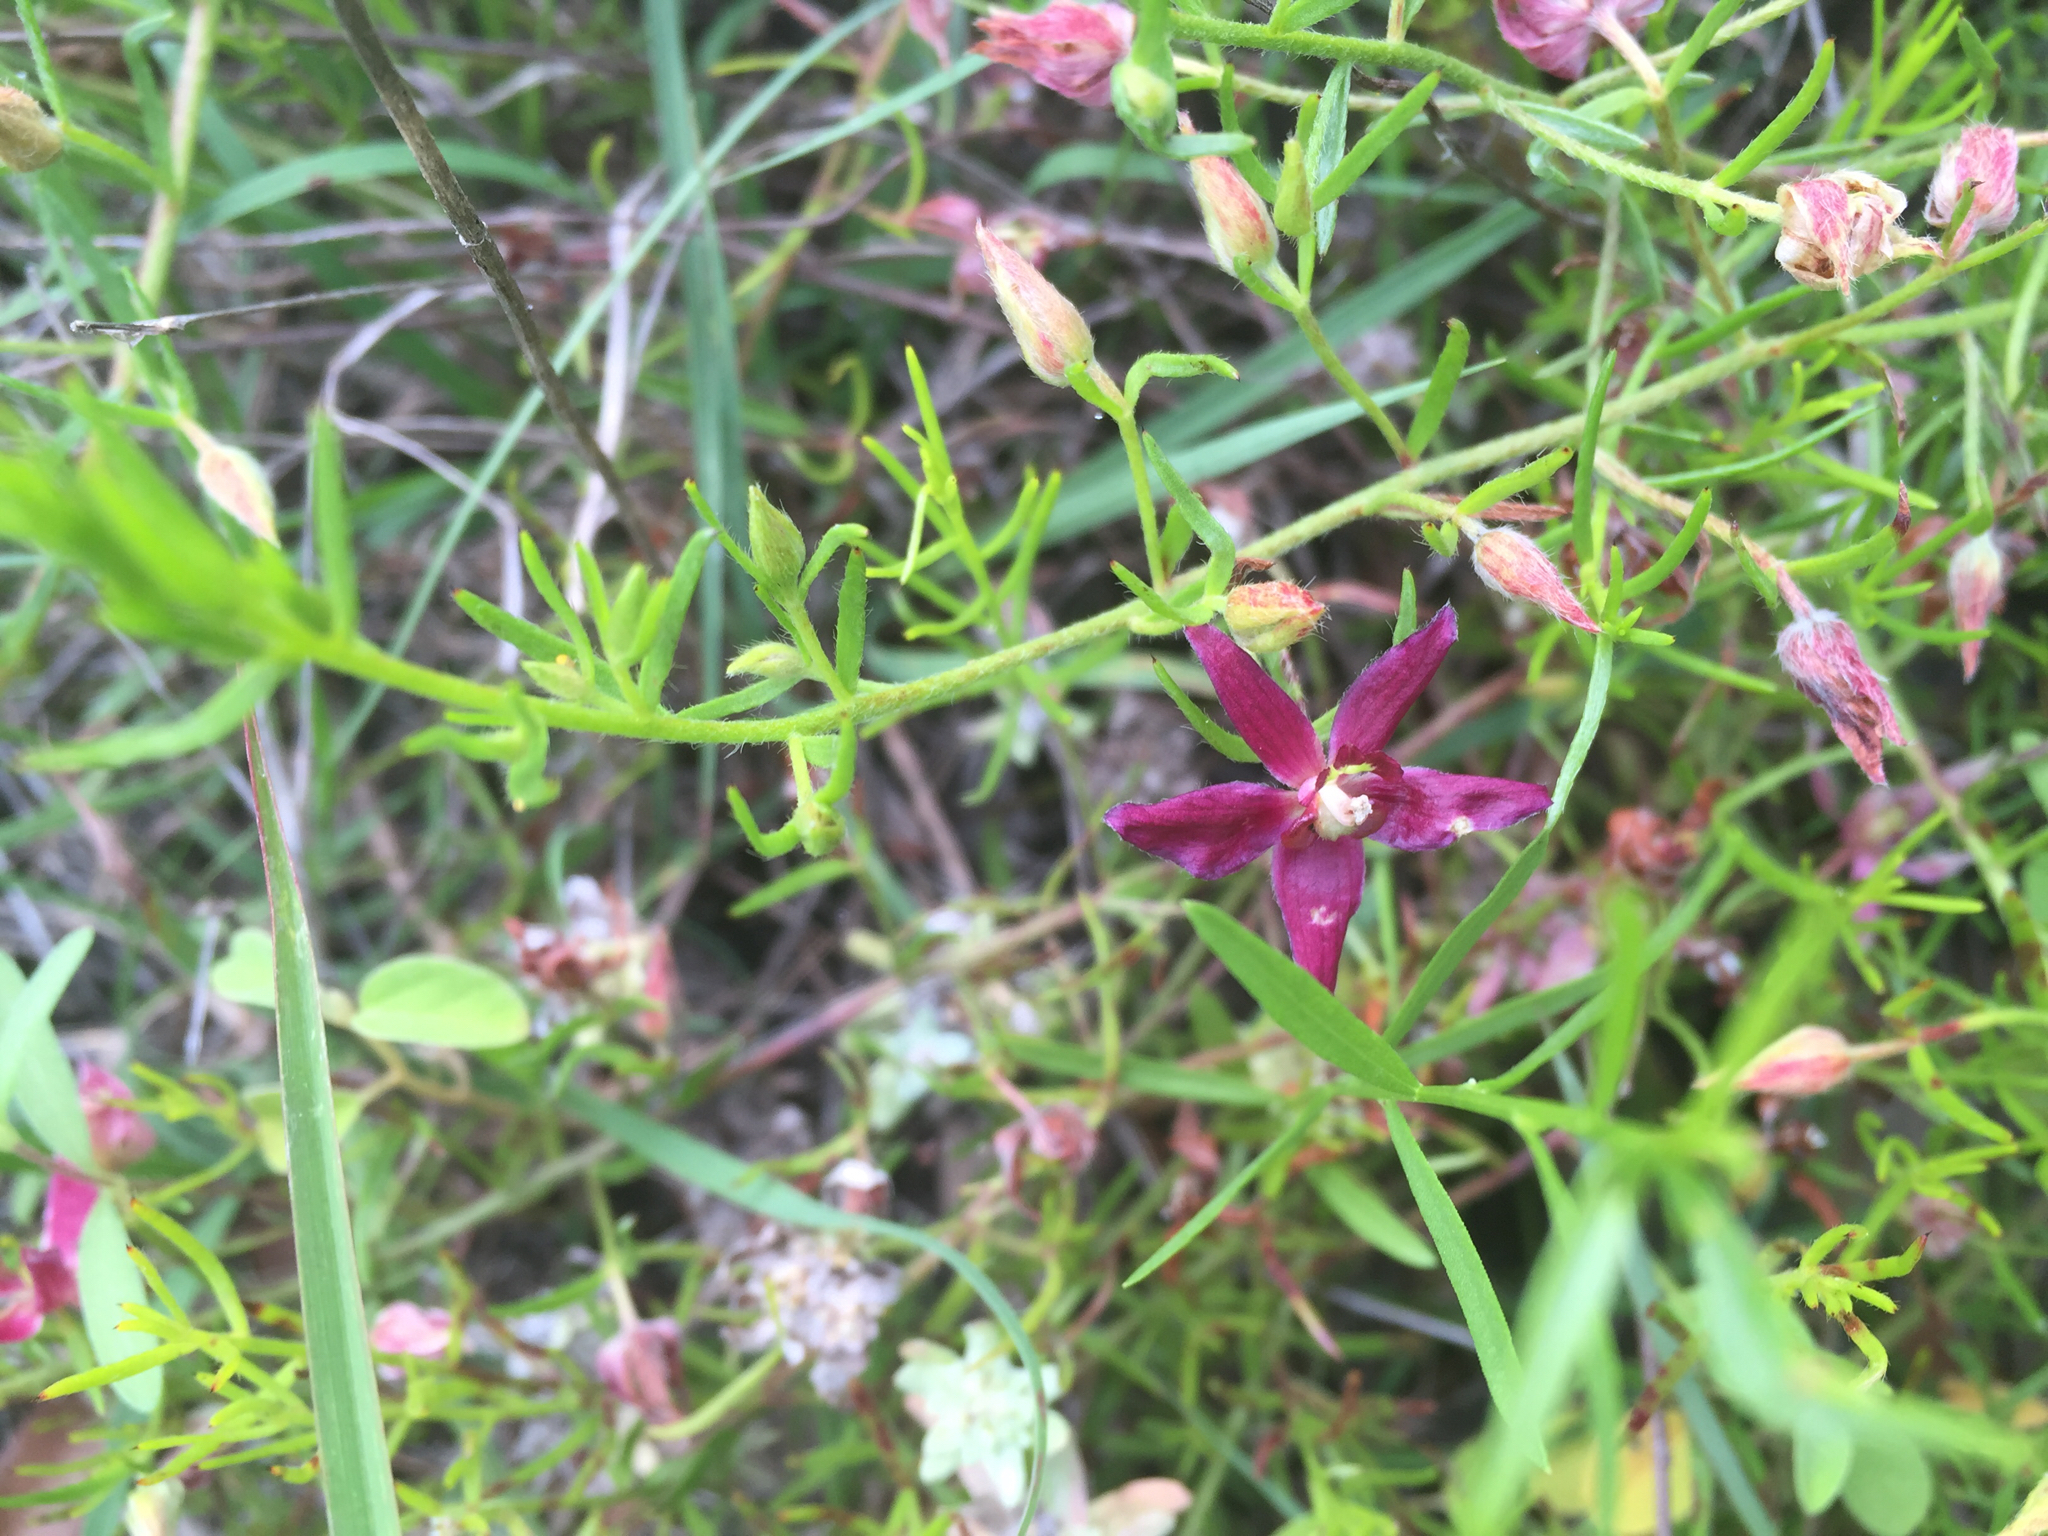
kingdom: Plantae
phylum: Tracheophyta
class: Magnoliopsida
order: Zygophyllales
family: Krameriaceae
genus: Krameria
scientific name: Krameria lanceolata
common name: Ratany
